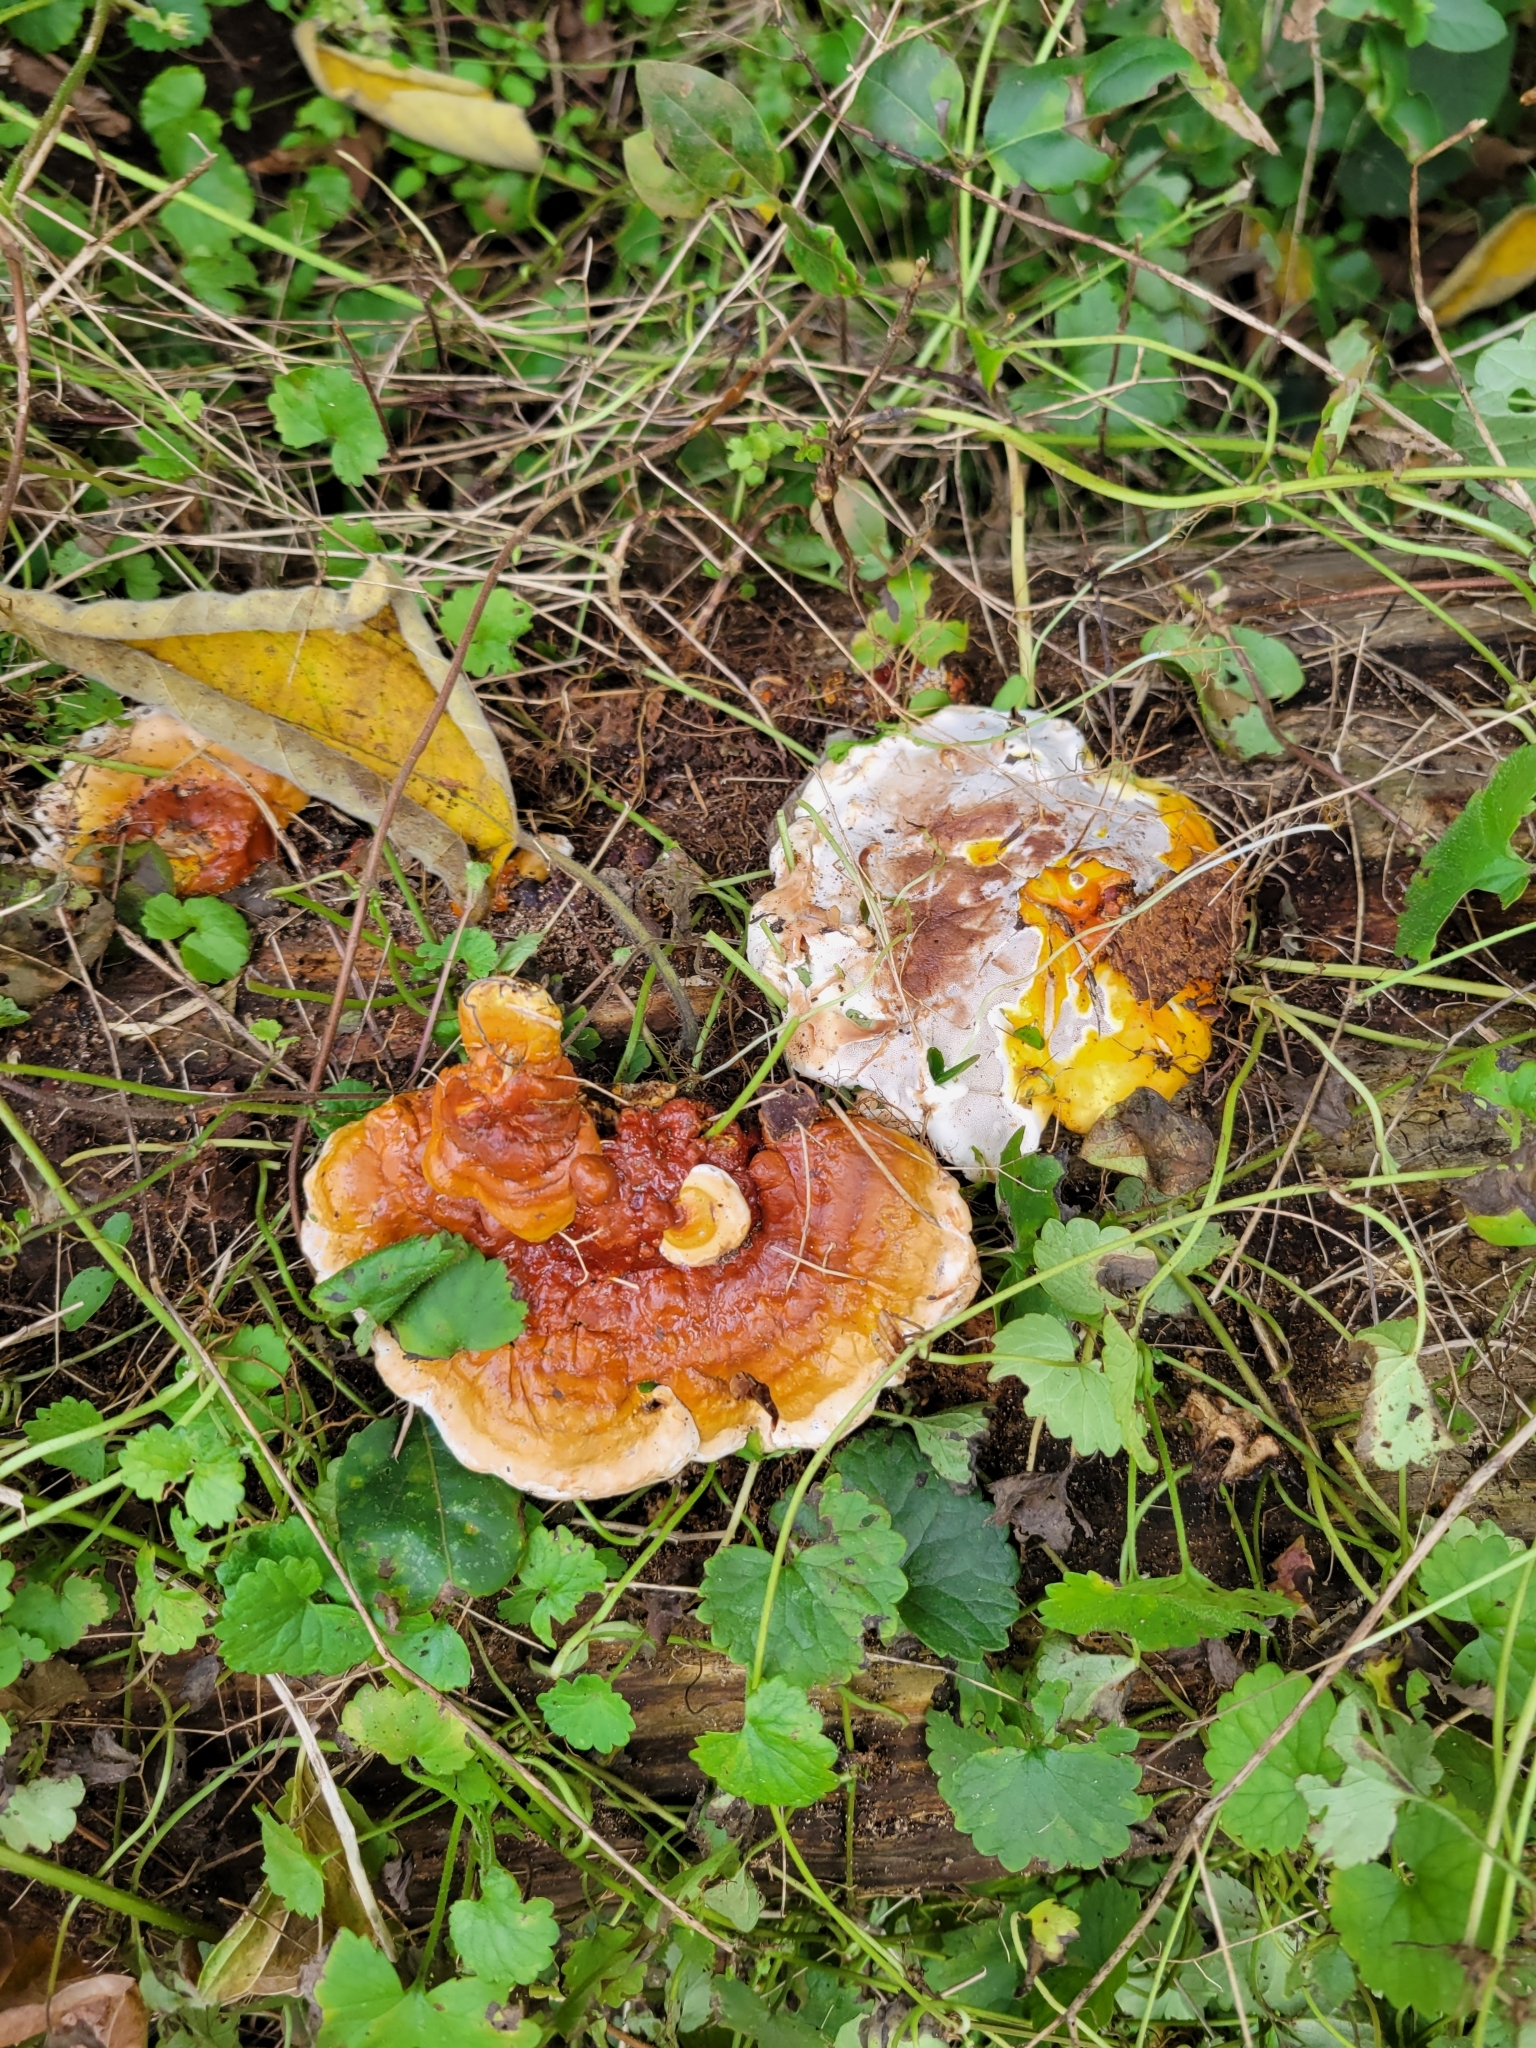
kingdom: Fungi
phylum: Basidiomycota
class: Agaricomycetes
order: Polyporales
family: Polyporaceae
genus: Ganoderma
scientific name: Ganoderma resinaceum
